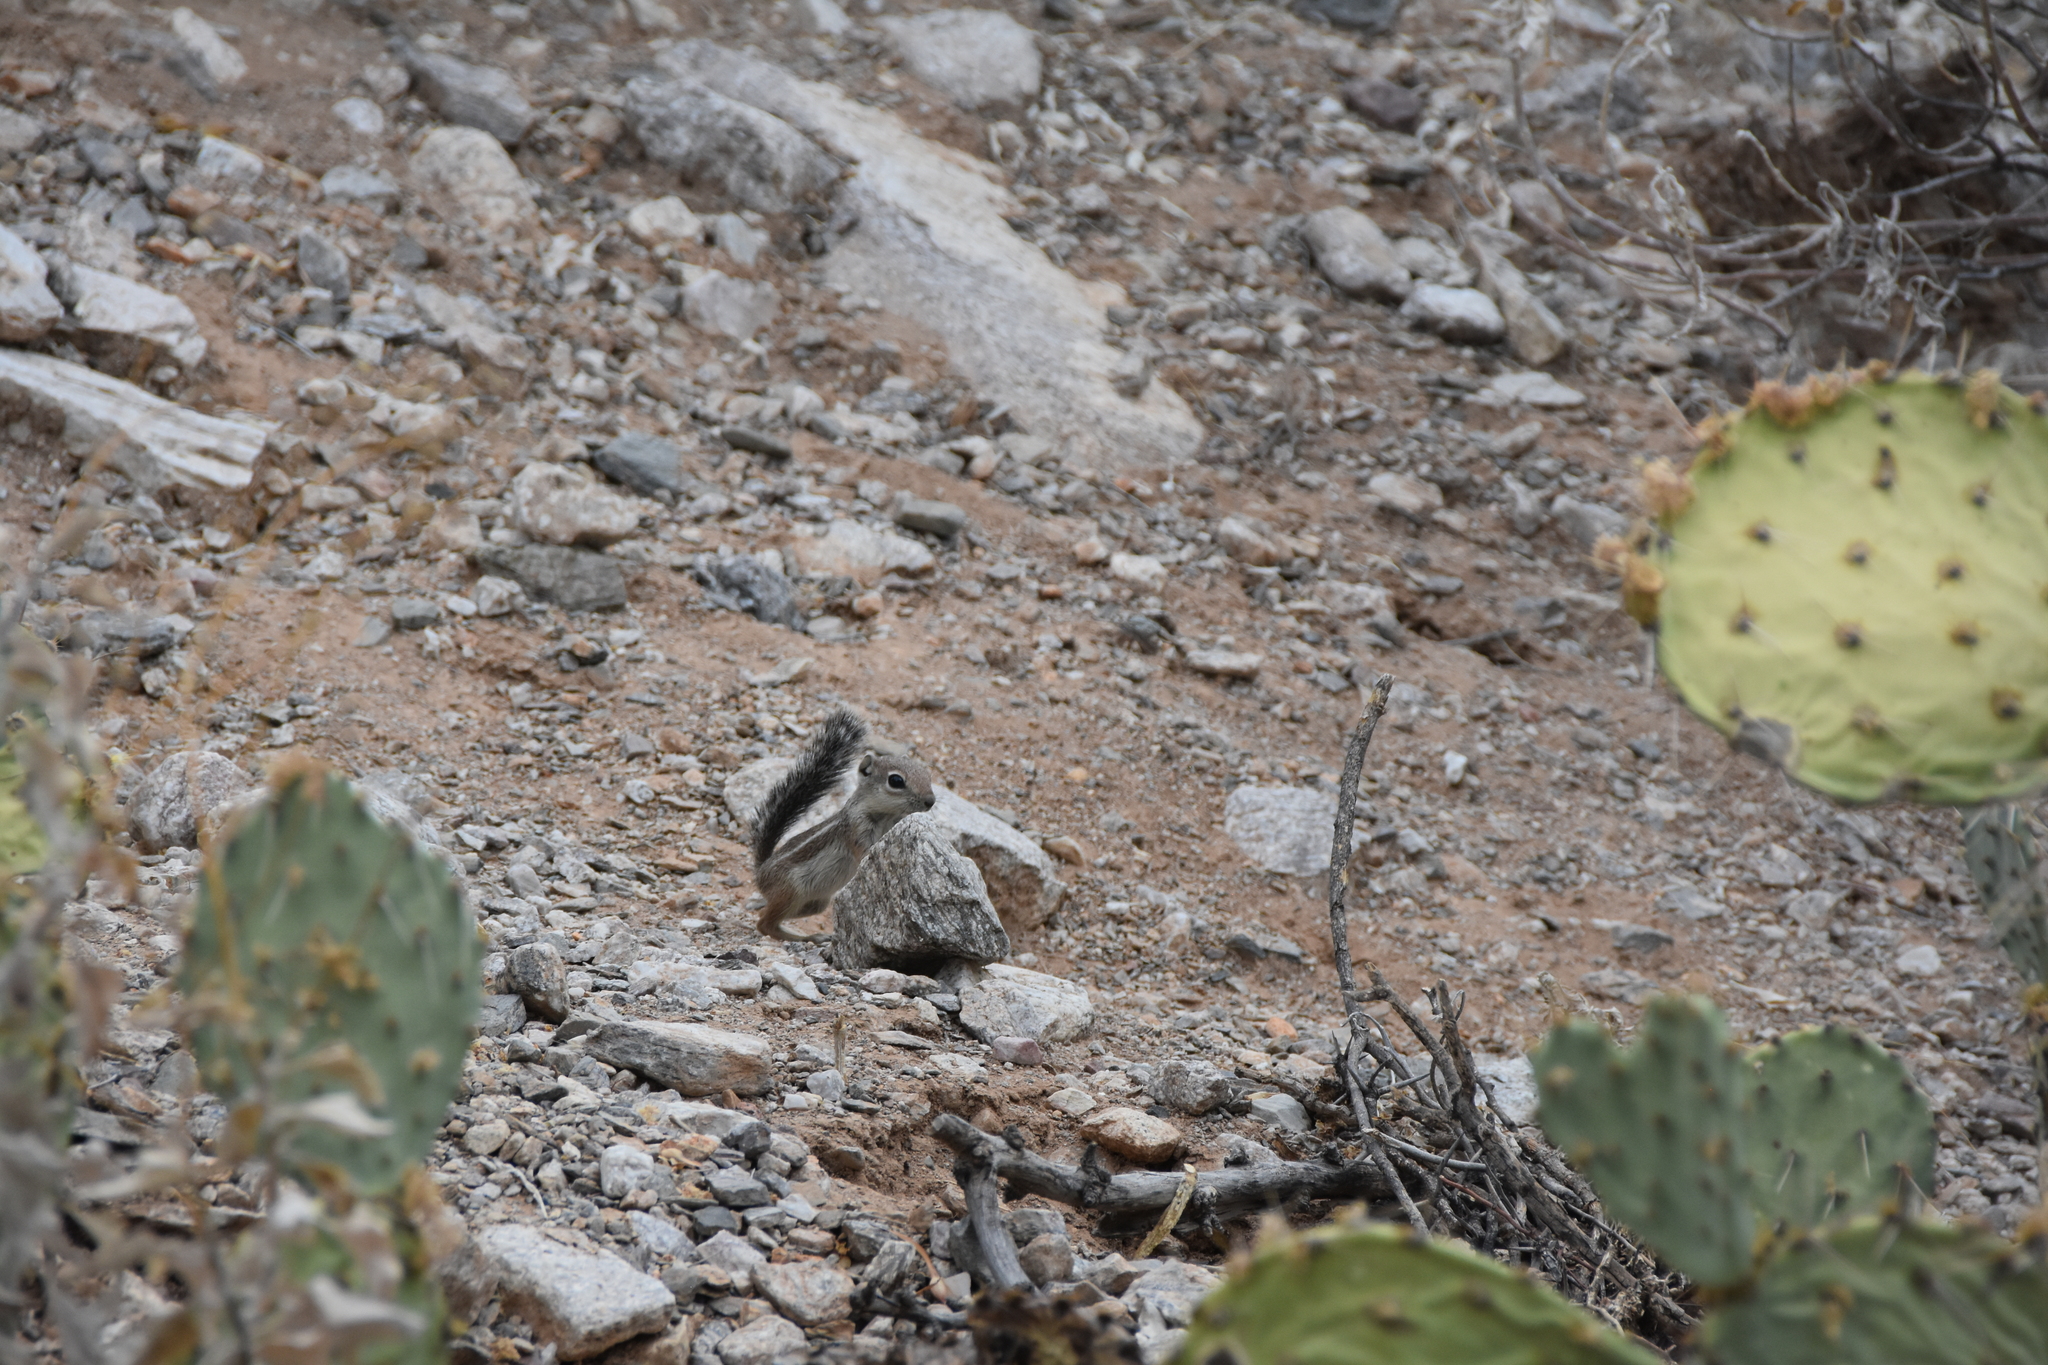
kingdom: Animalia
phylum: Chordata
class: Mammalia
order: Rodentia
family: Sciuridae
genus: Ammospermophilus
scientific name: Ammospermophilus harrisii
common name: Harris's antelope squirrel
